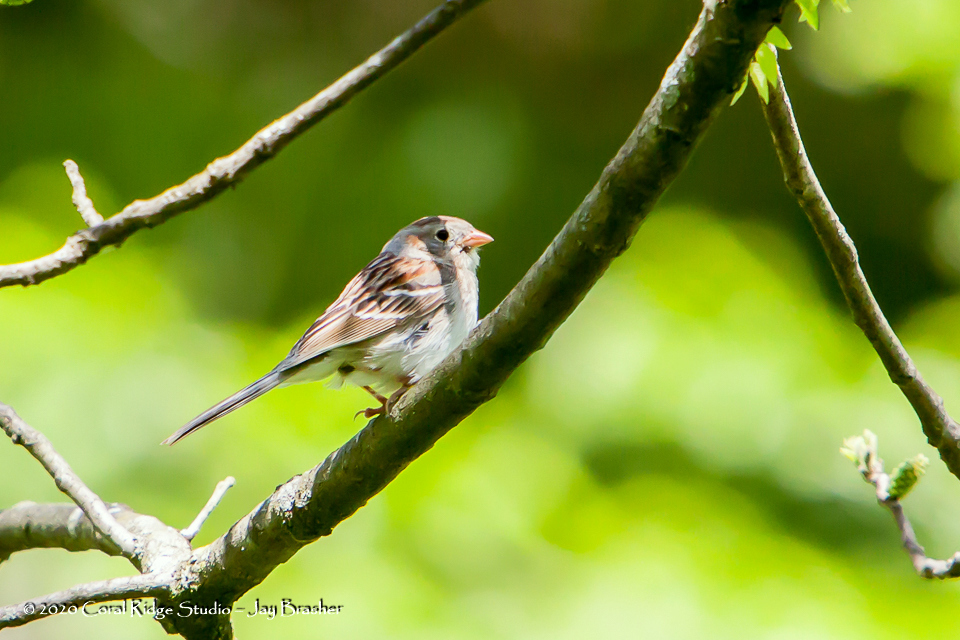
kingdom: Animalia
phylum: Chordata
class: Aves
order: Passeriformes
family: Passerellidae
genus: Spizella
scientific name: Spizella pusilla
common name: Field sparrow
